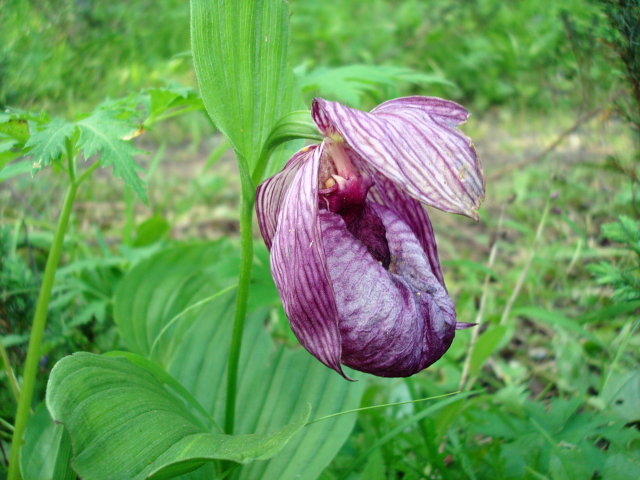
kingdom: Plantae
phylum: Tracheophyta
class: Liliopsida
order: Asparagales
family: Orchidaceae
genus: Cypripedium
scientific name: Cypripedium macranthos
